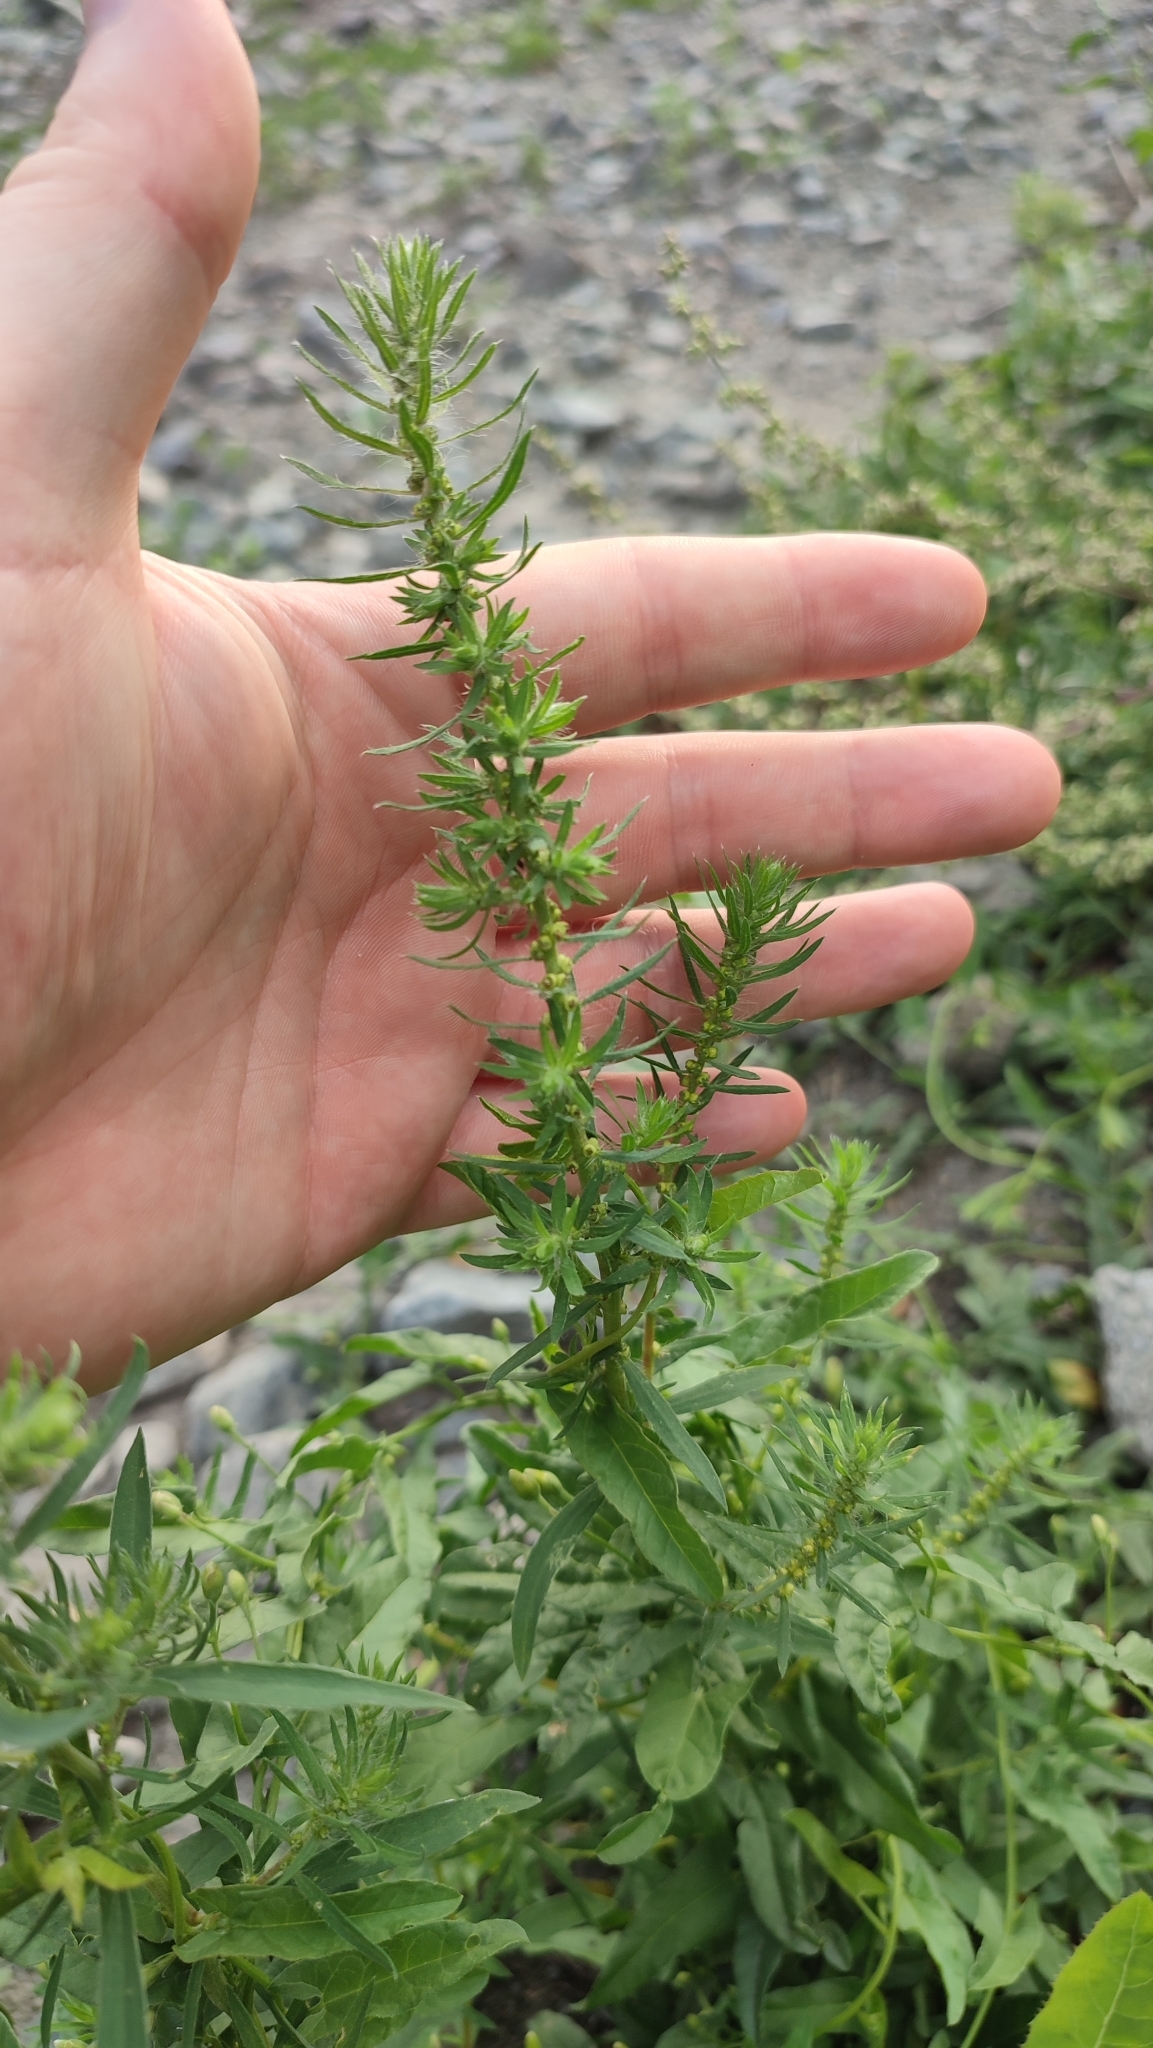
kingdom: Plantae
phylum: Tracheophyta
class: Magnoliopsida
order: Caryophyllales
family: Amaranthaceae
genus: Bassia
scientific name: Bassia scoparia
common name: Belvedere
